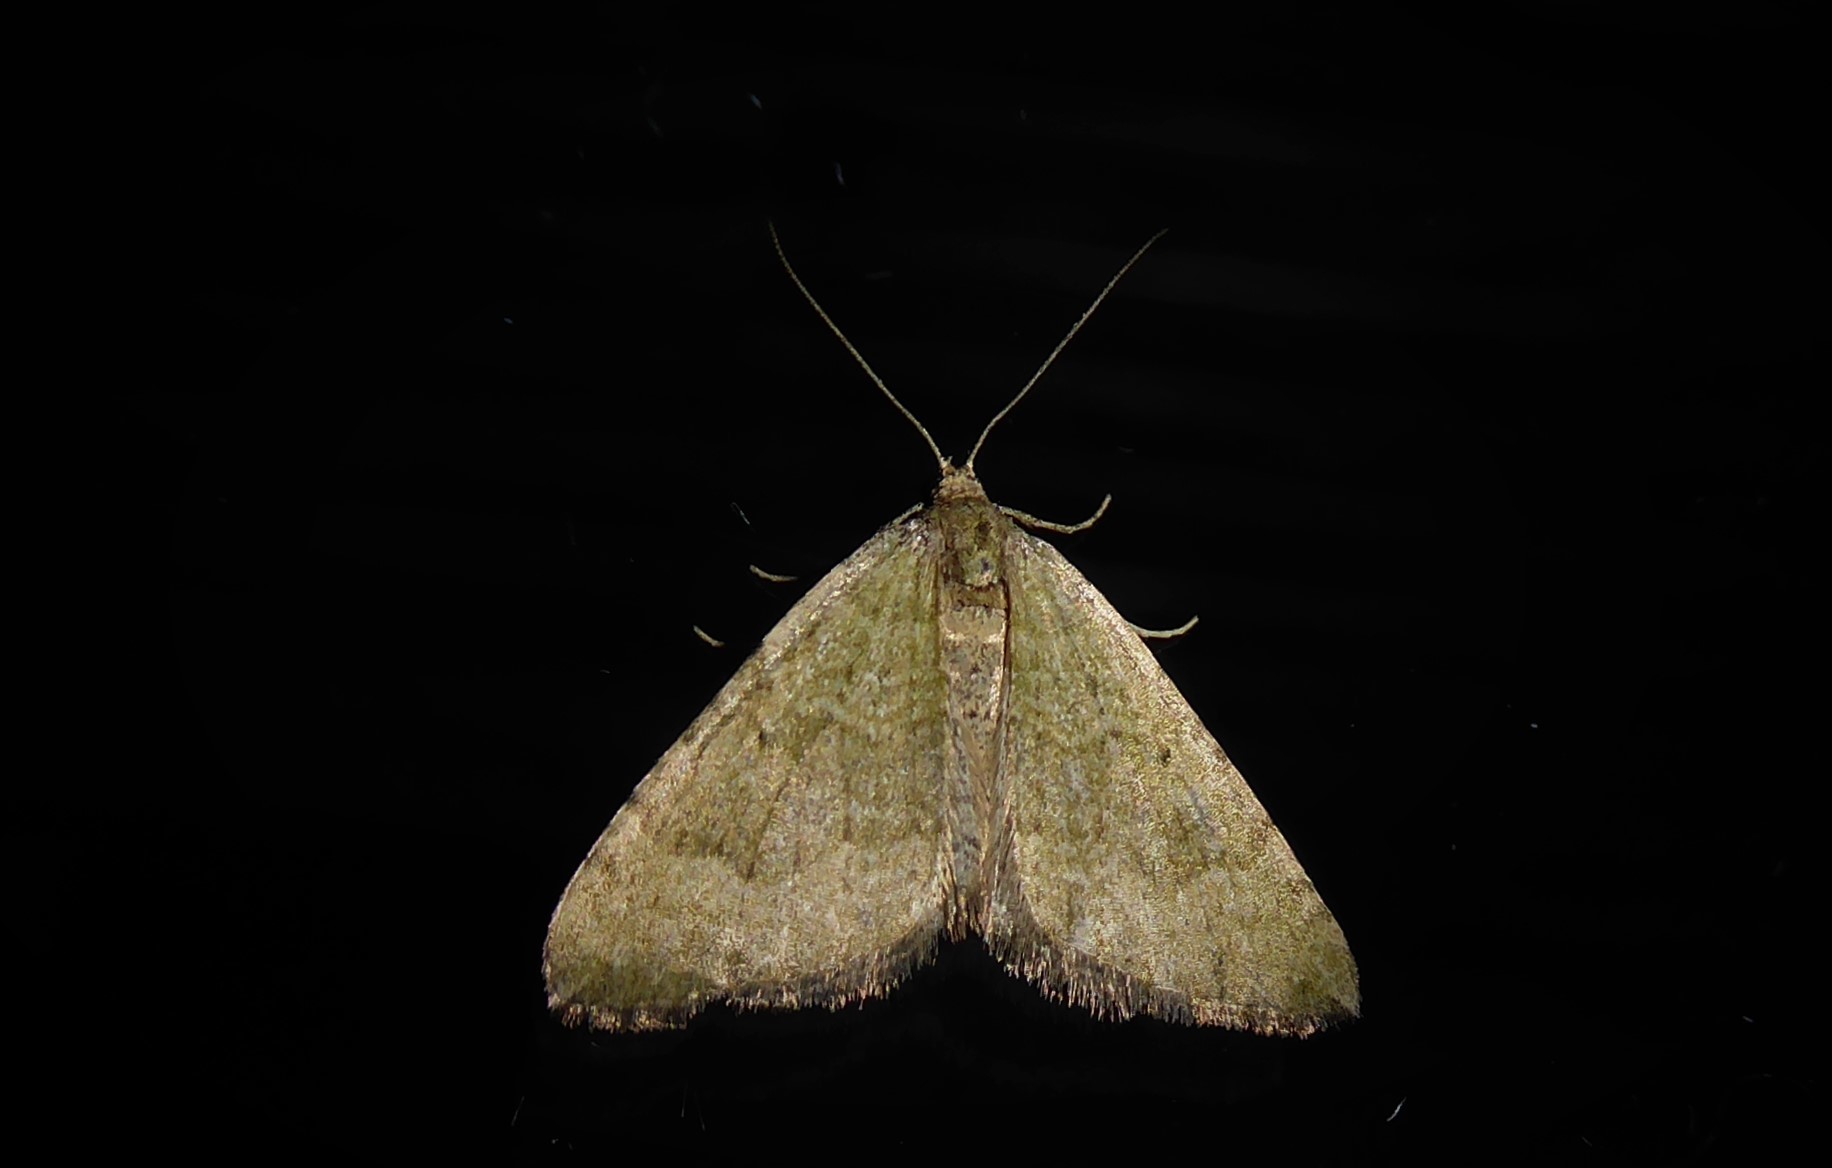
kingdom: Animalia
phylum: Arthropoda
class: Insecta
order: Lepidoptera
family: Geometridae
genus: Epyaxa
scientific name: Epyaxa rosearia
